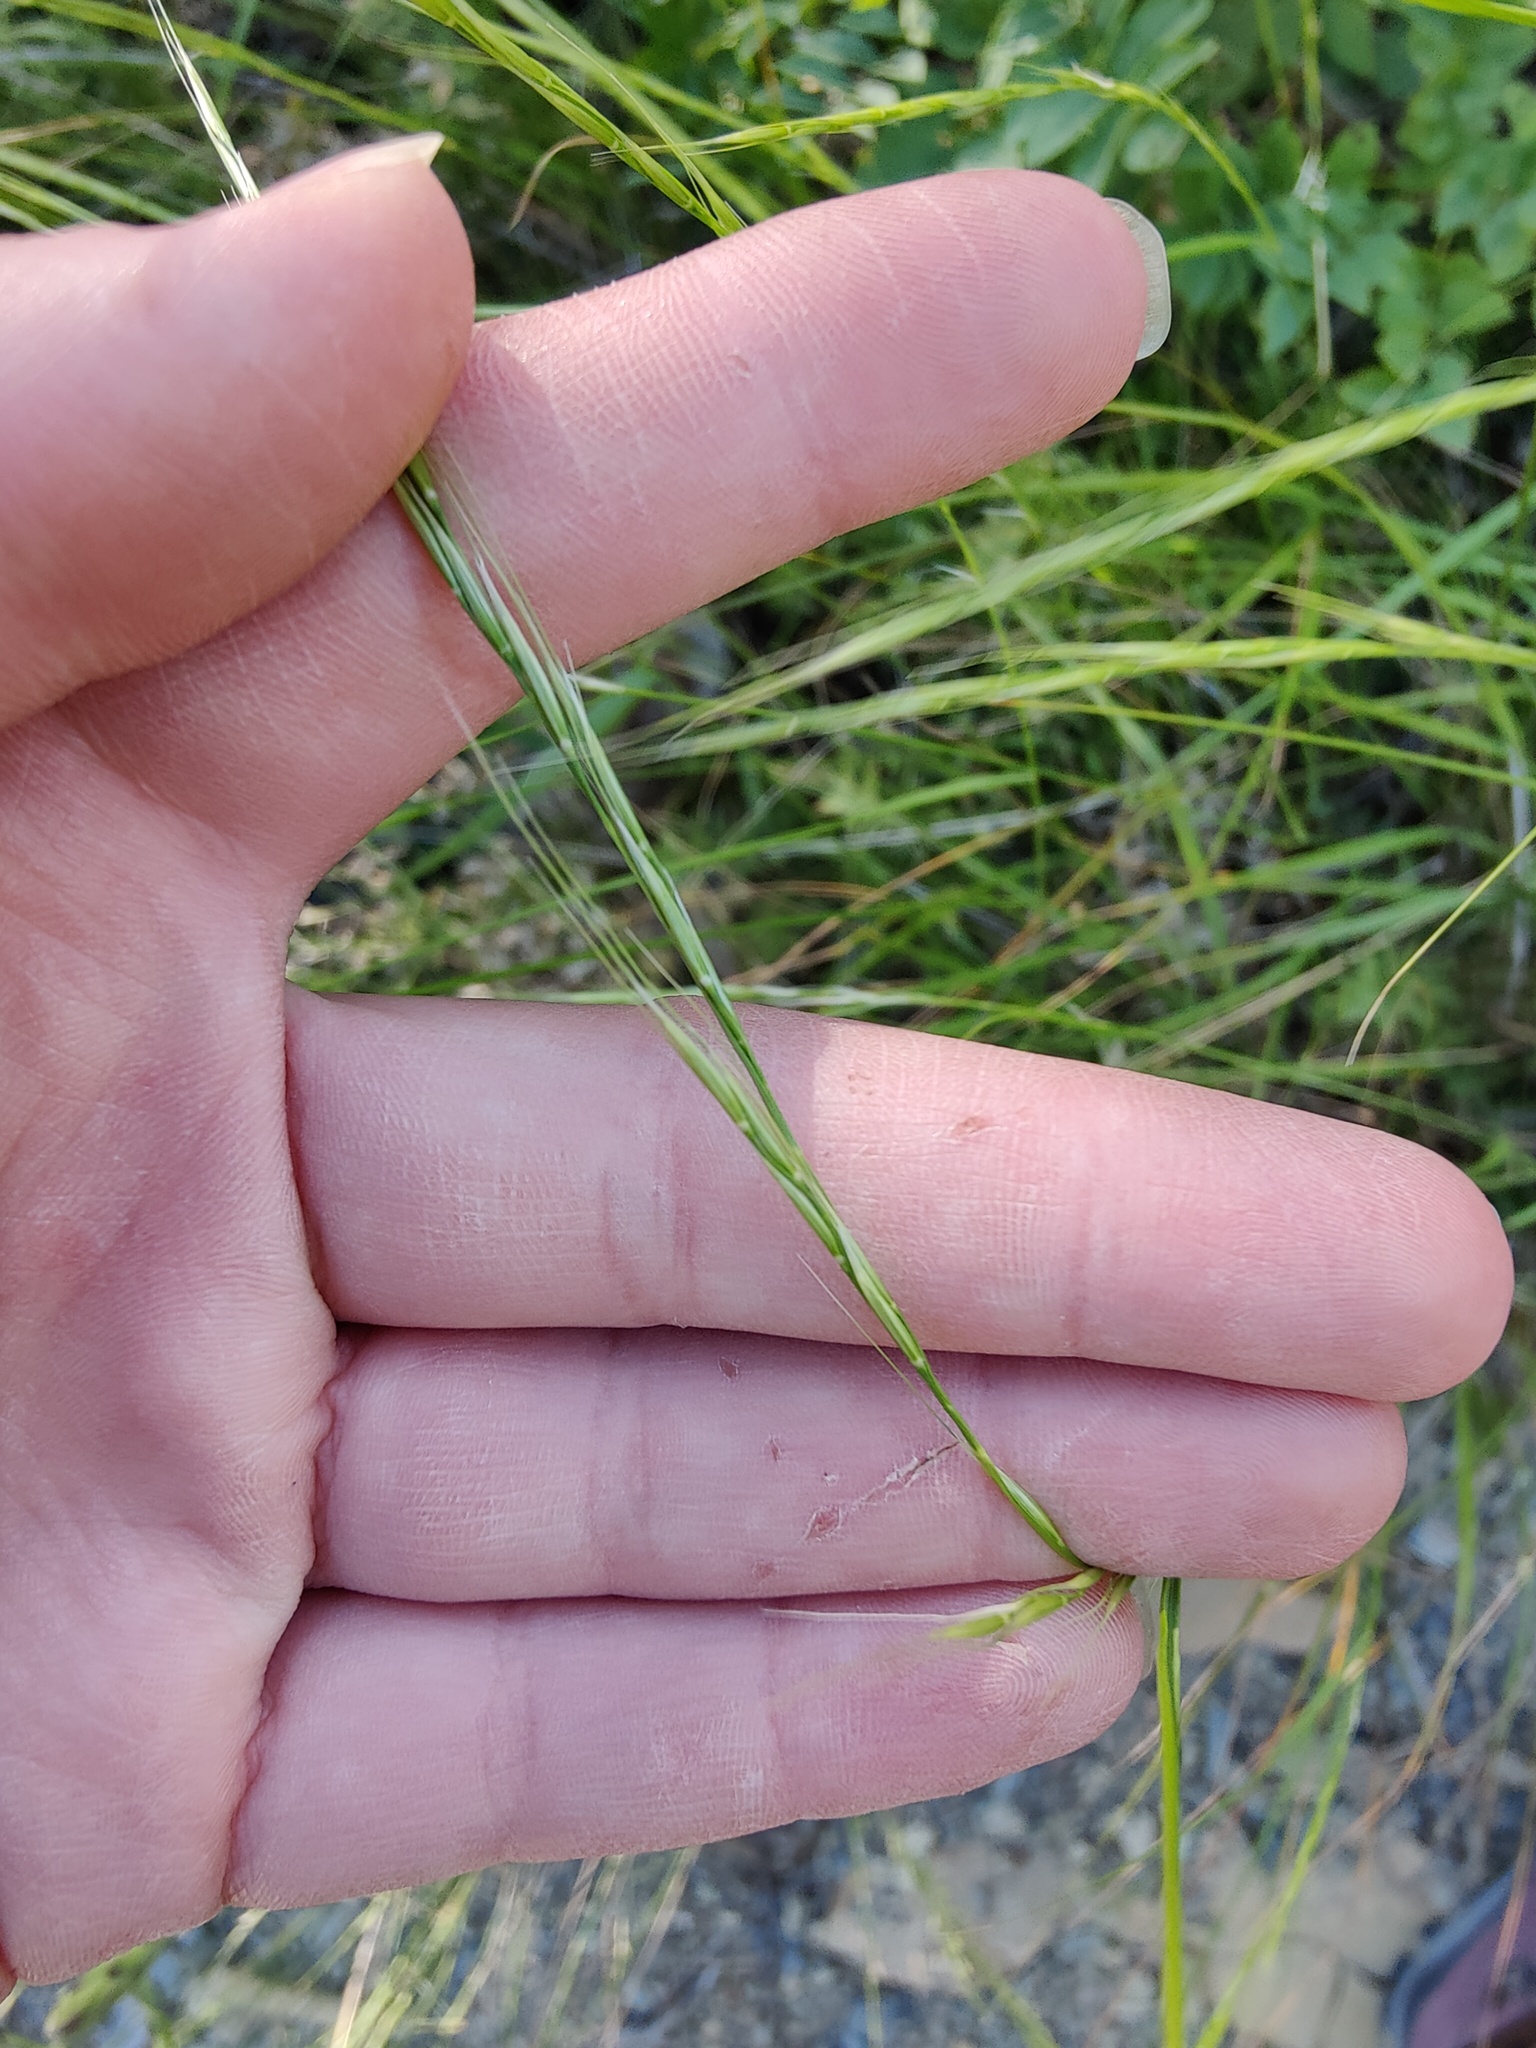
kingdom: Plantae
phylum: Tracheophyta
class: Liliopsida
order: Poales
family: Poaceae
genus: Achnatherum
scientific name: Achnatherum bromoides
